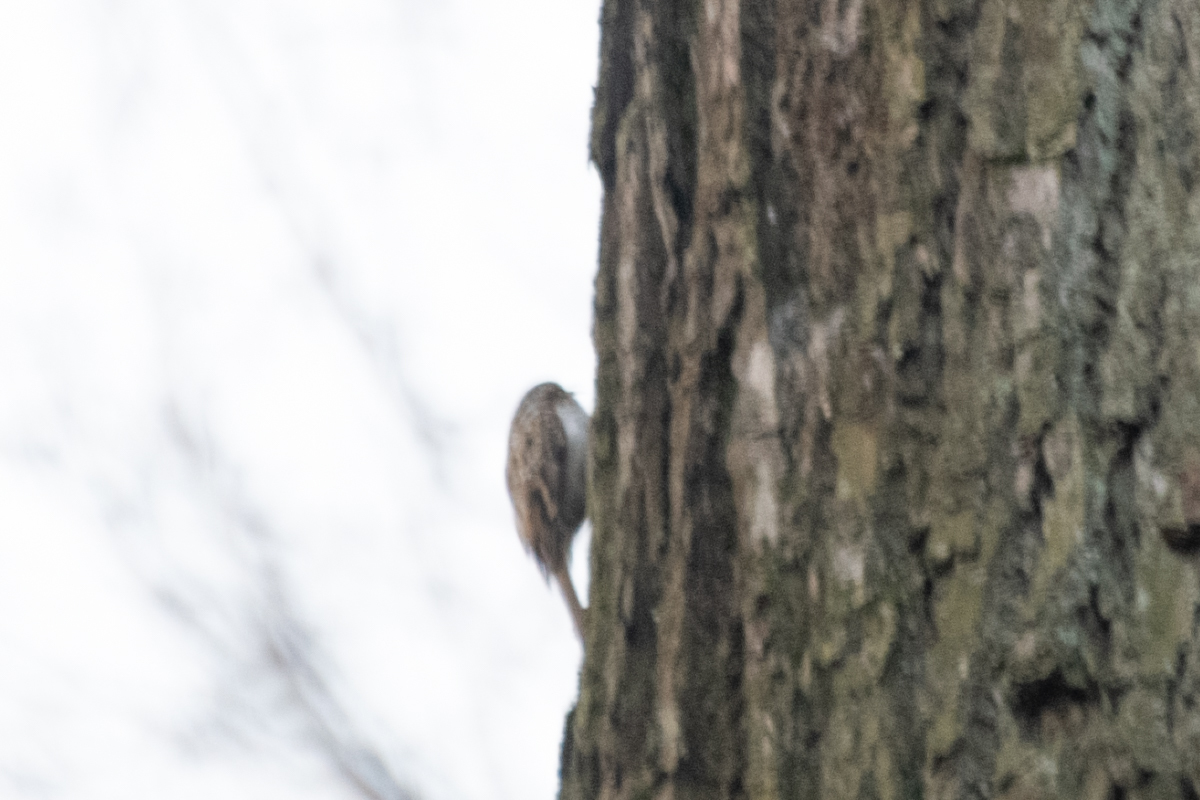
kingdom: Animalia
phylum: Chordata
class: Aves
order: Passeriformes
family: Certhiidae
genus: Certhia
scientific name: Certhia familiaris
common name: Eurasian treecreeper
